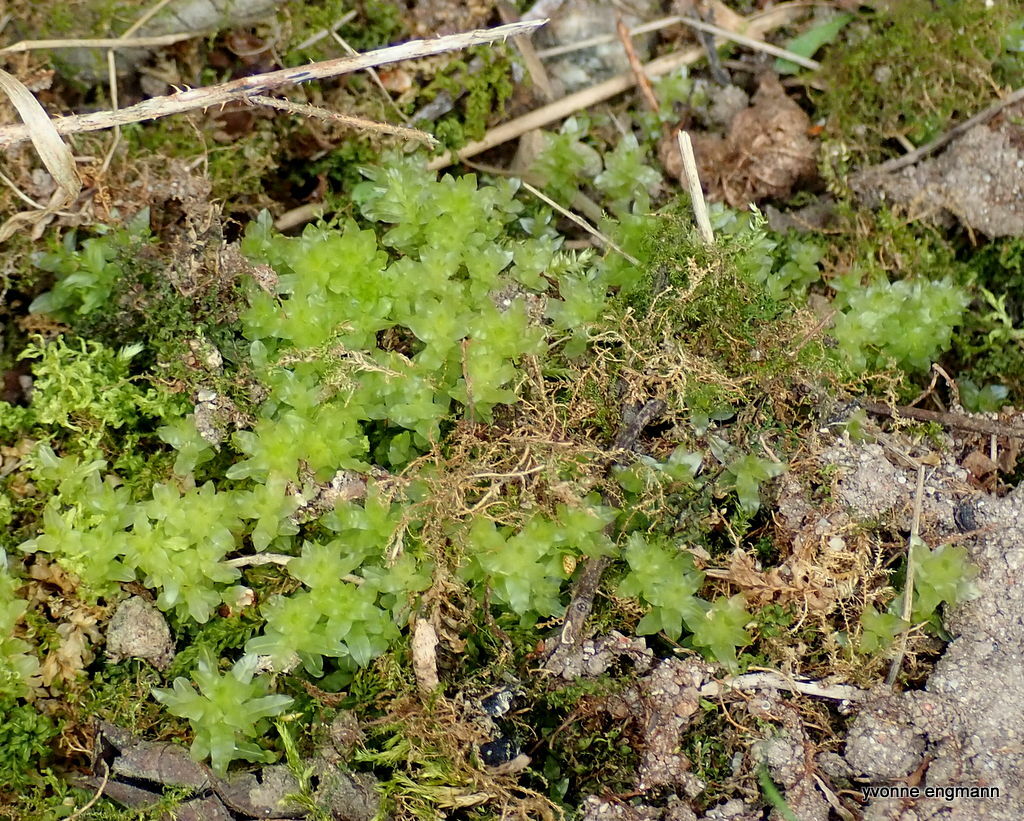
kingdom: Plantae
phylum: Bryophyta
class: Bryopsida
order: Bryales
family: Mniaceae
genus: Plagiomnium
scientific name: Plagiomnium undulatum
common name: Hart's-tongue thyme-moss
